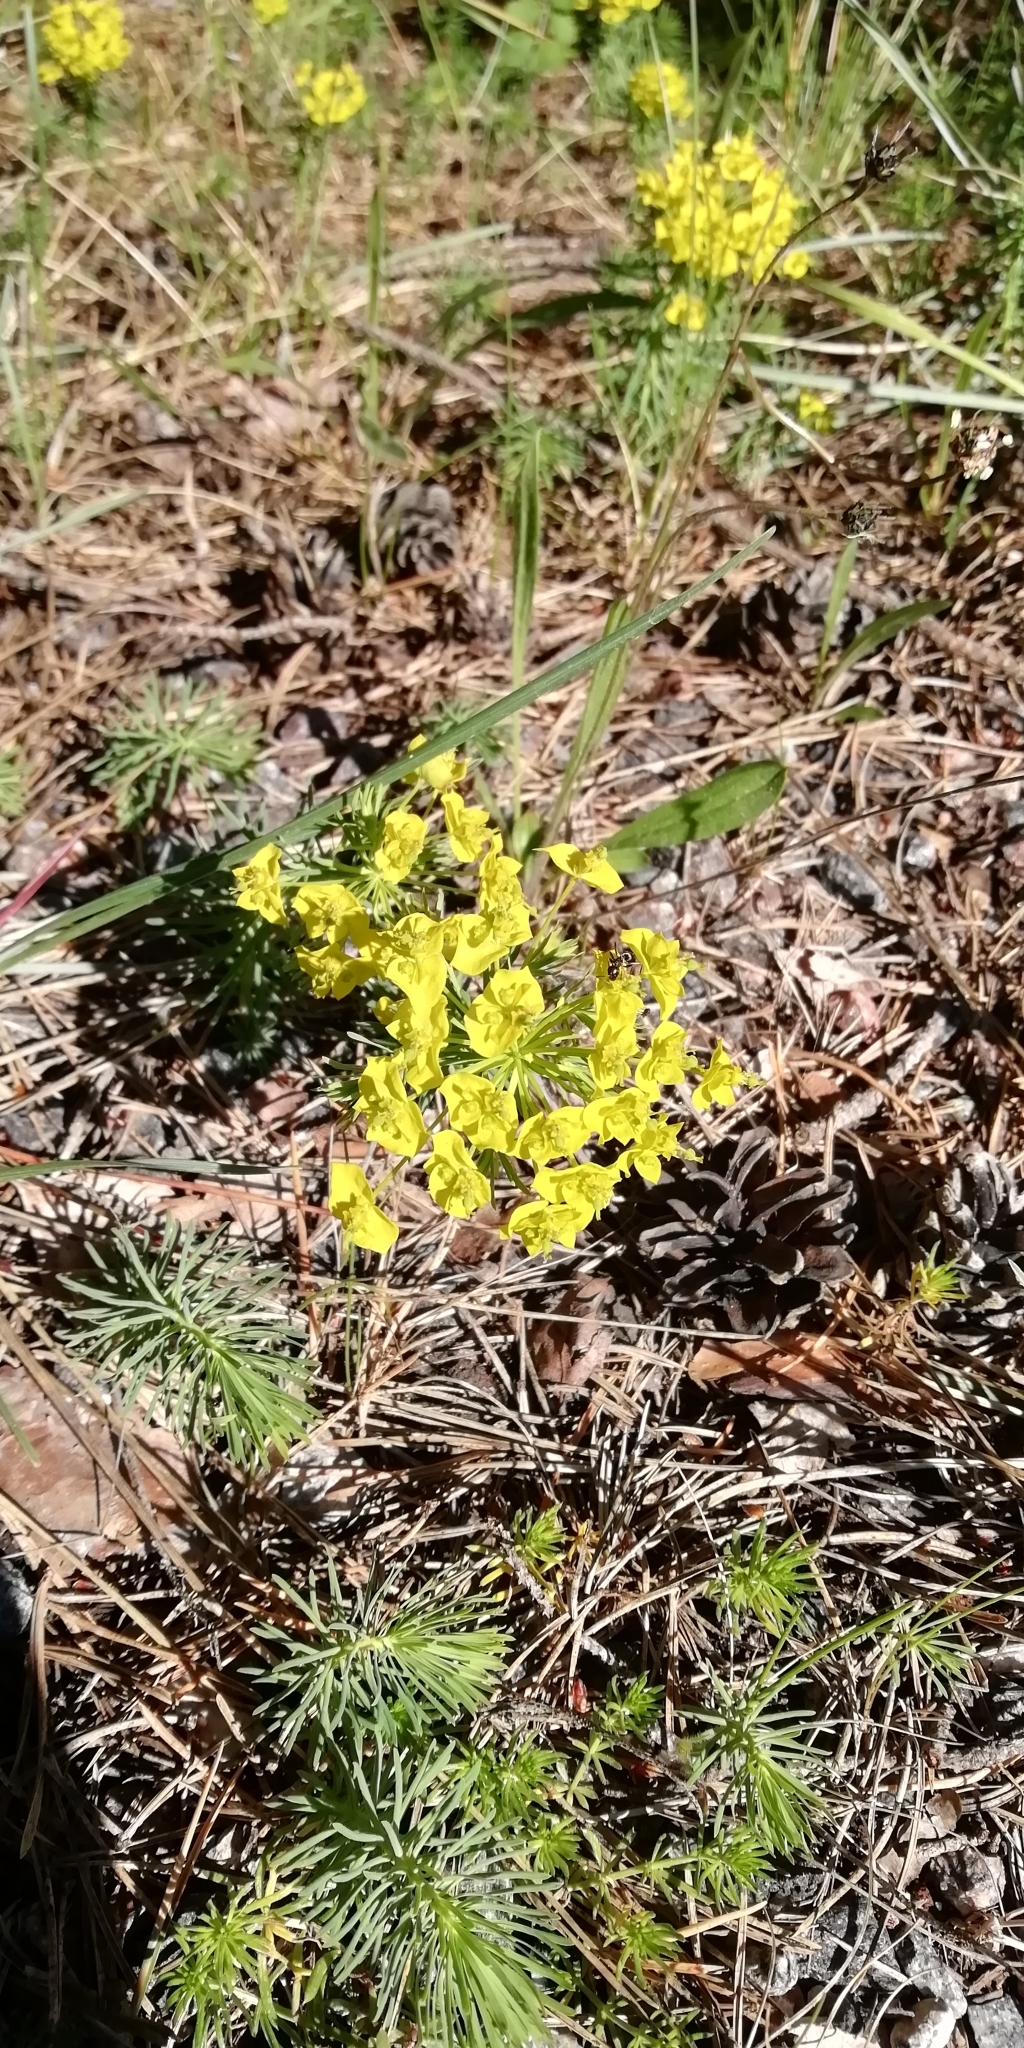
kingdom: Plantae
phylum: Tracheophyta
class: Magnoliopsida
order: Malpighiales
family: Euphorbiaceae
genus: Euphorbia
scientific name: Euphorbia cyparissias
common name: Cypress spurge
